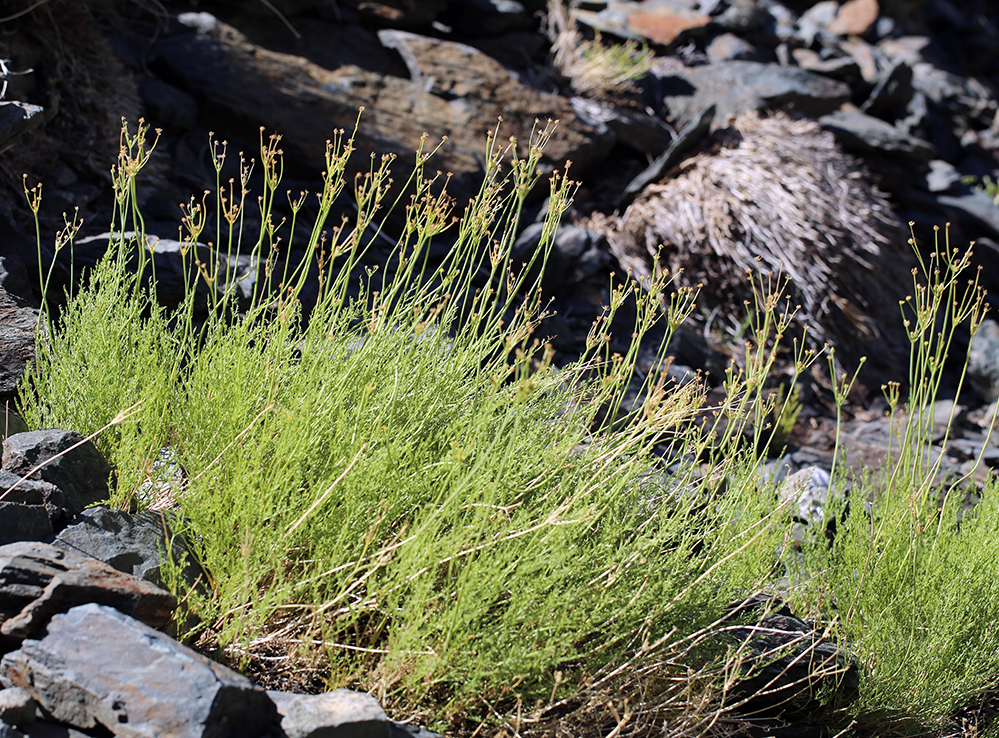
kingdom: Plantae
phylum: Tracheophyta
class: Magnoliopsida
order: Apiales
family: Apiaceae
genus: Pteryxia
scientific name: Pteryxia petraea
